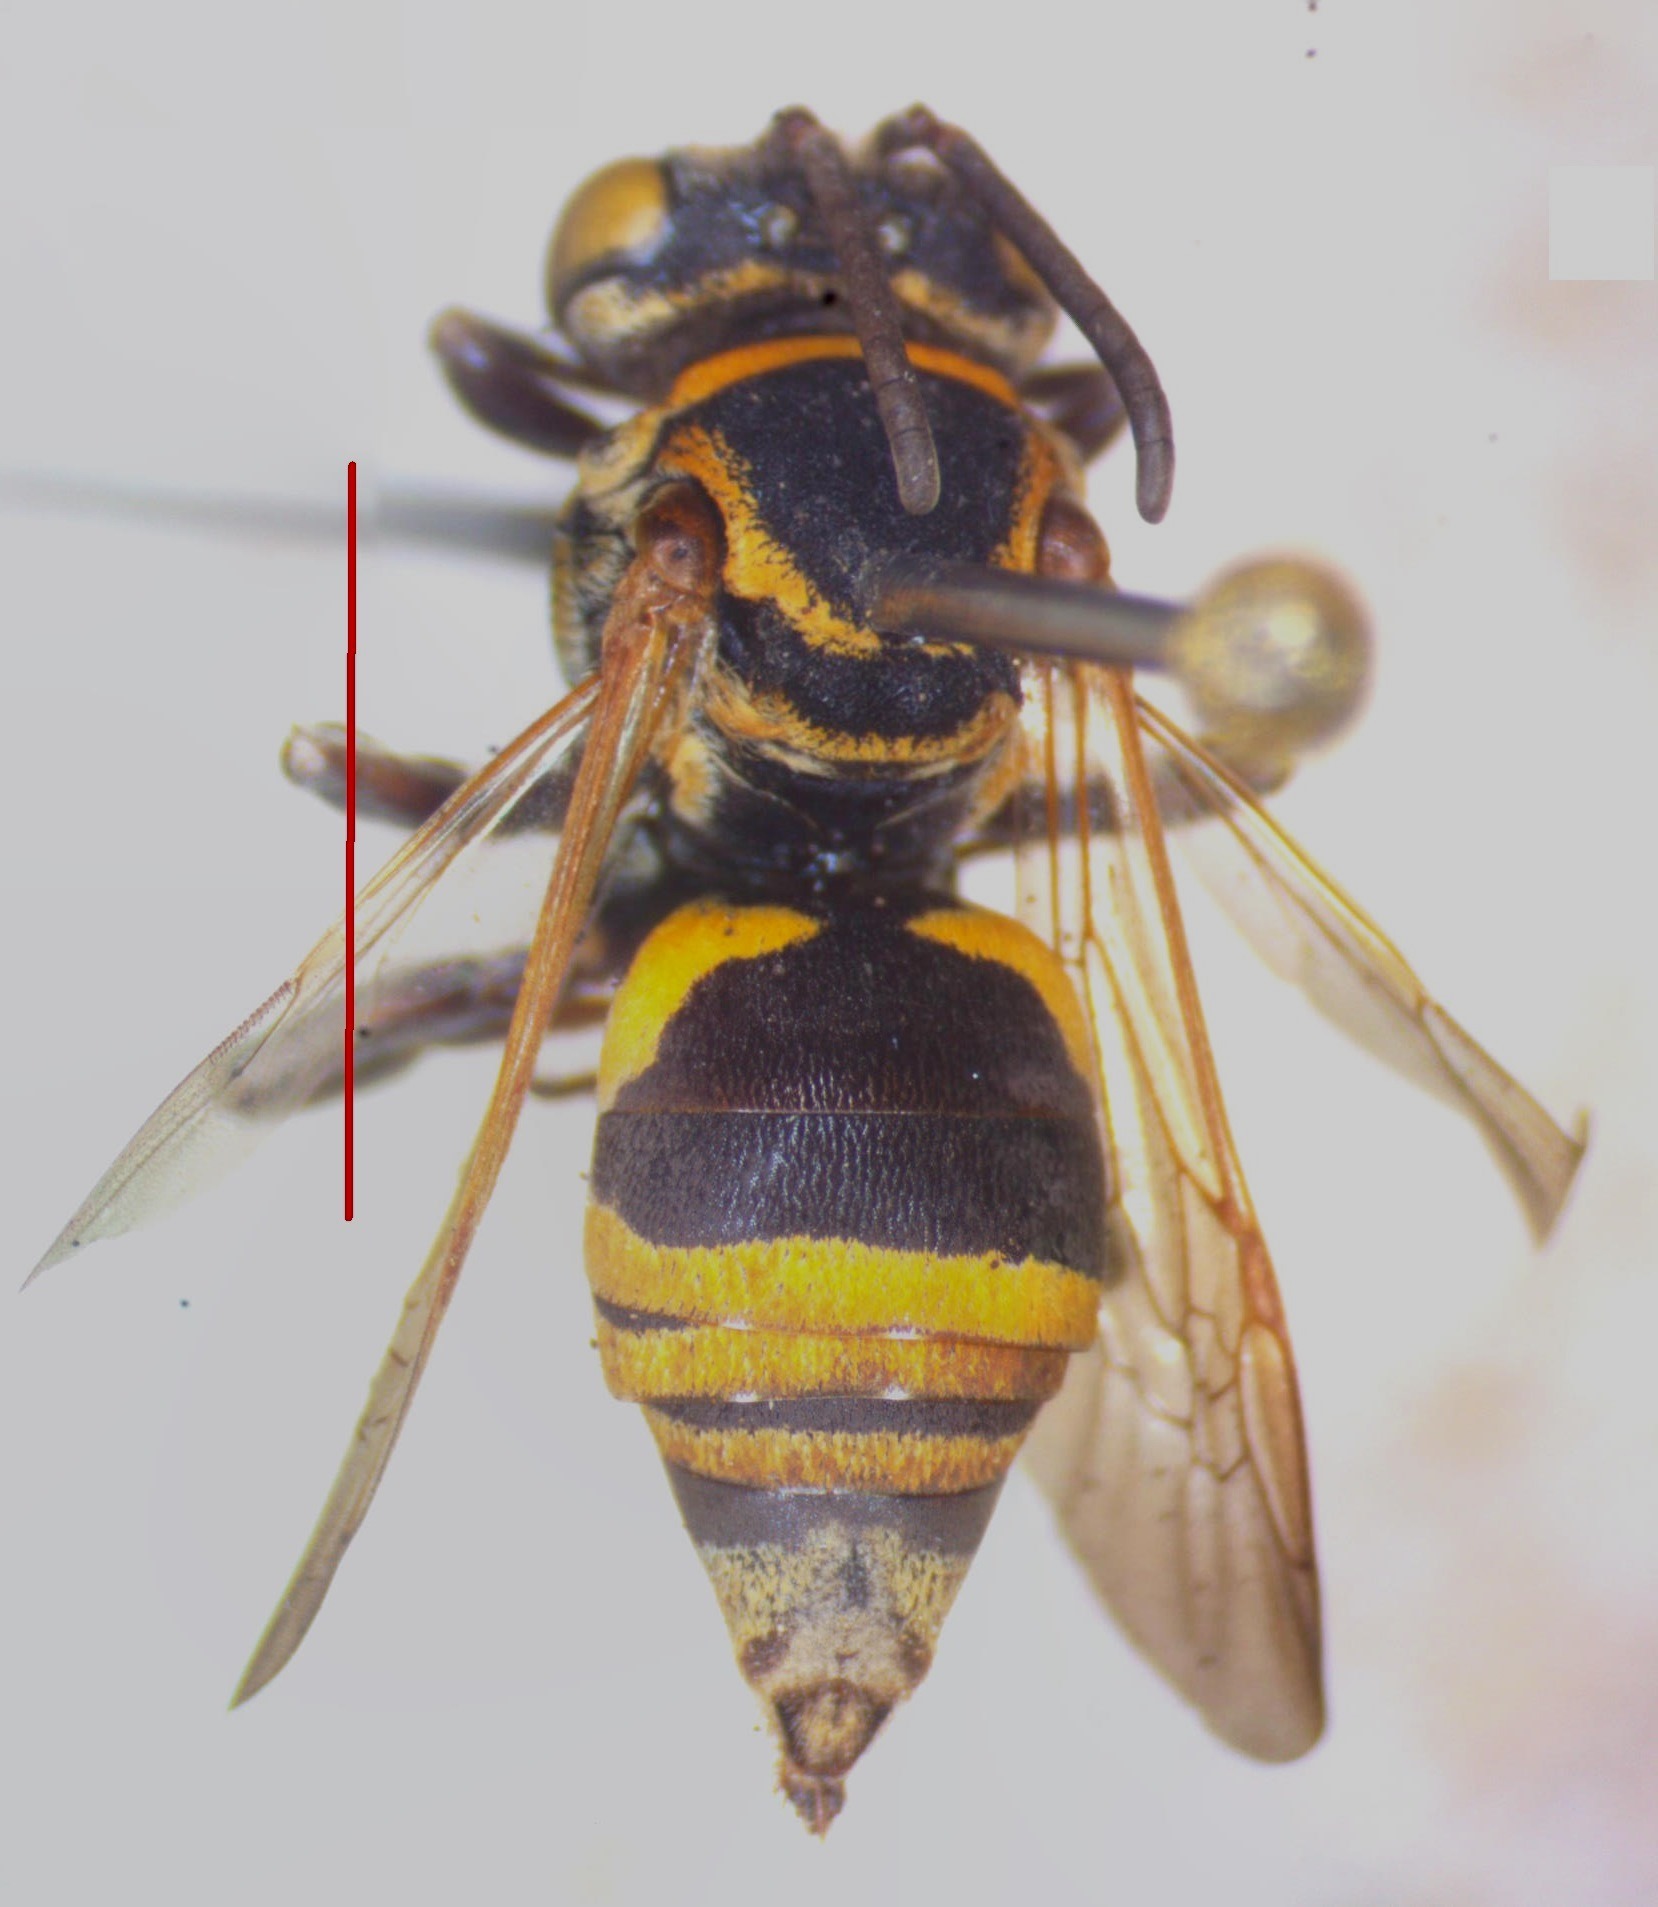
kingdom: Animalia
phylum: Arthropoda
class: Insecta
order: Hymenoptera
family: Apidae
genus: Triepeolus
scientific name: Triepeolus mexicanus
